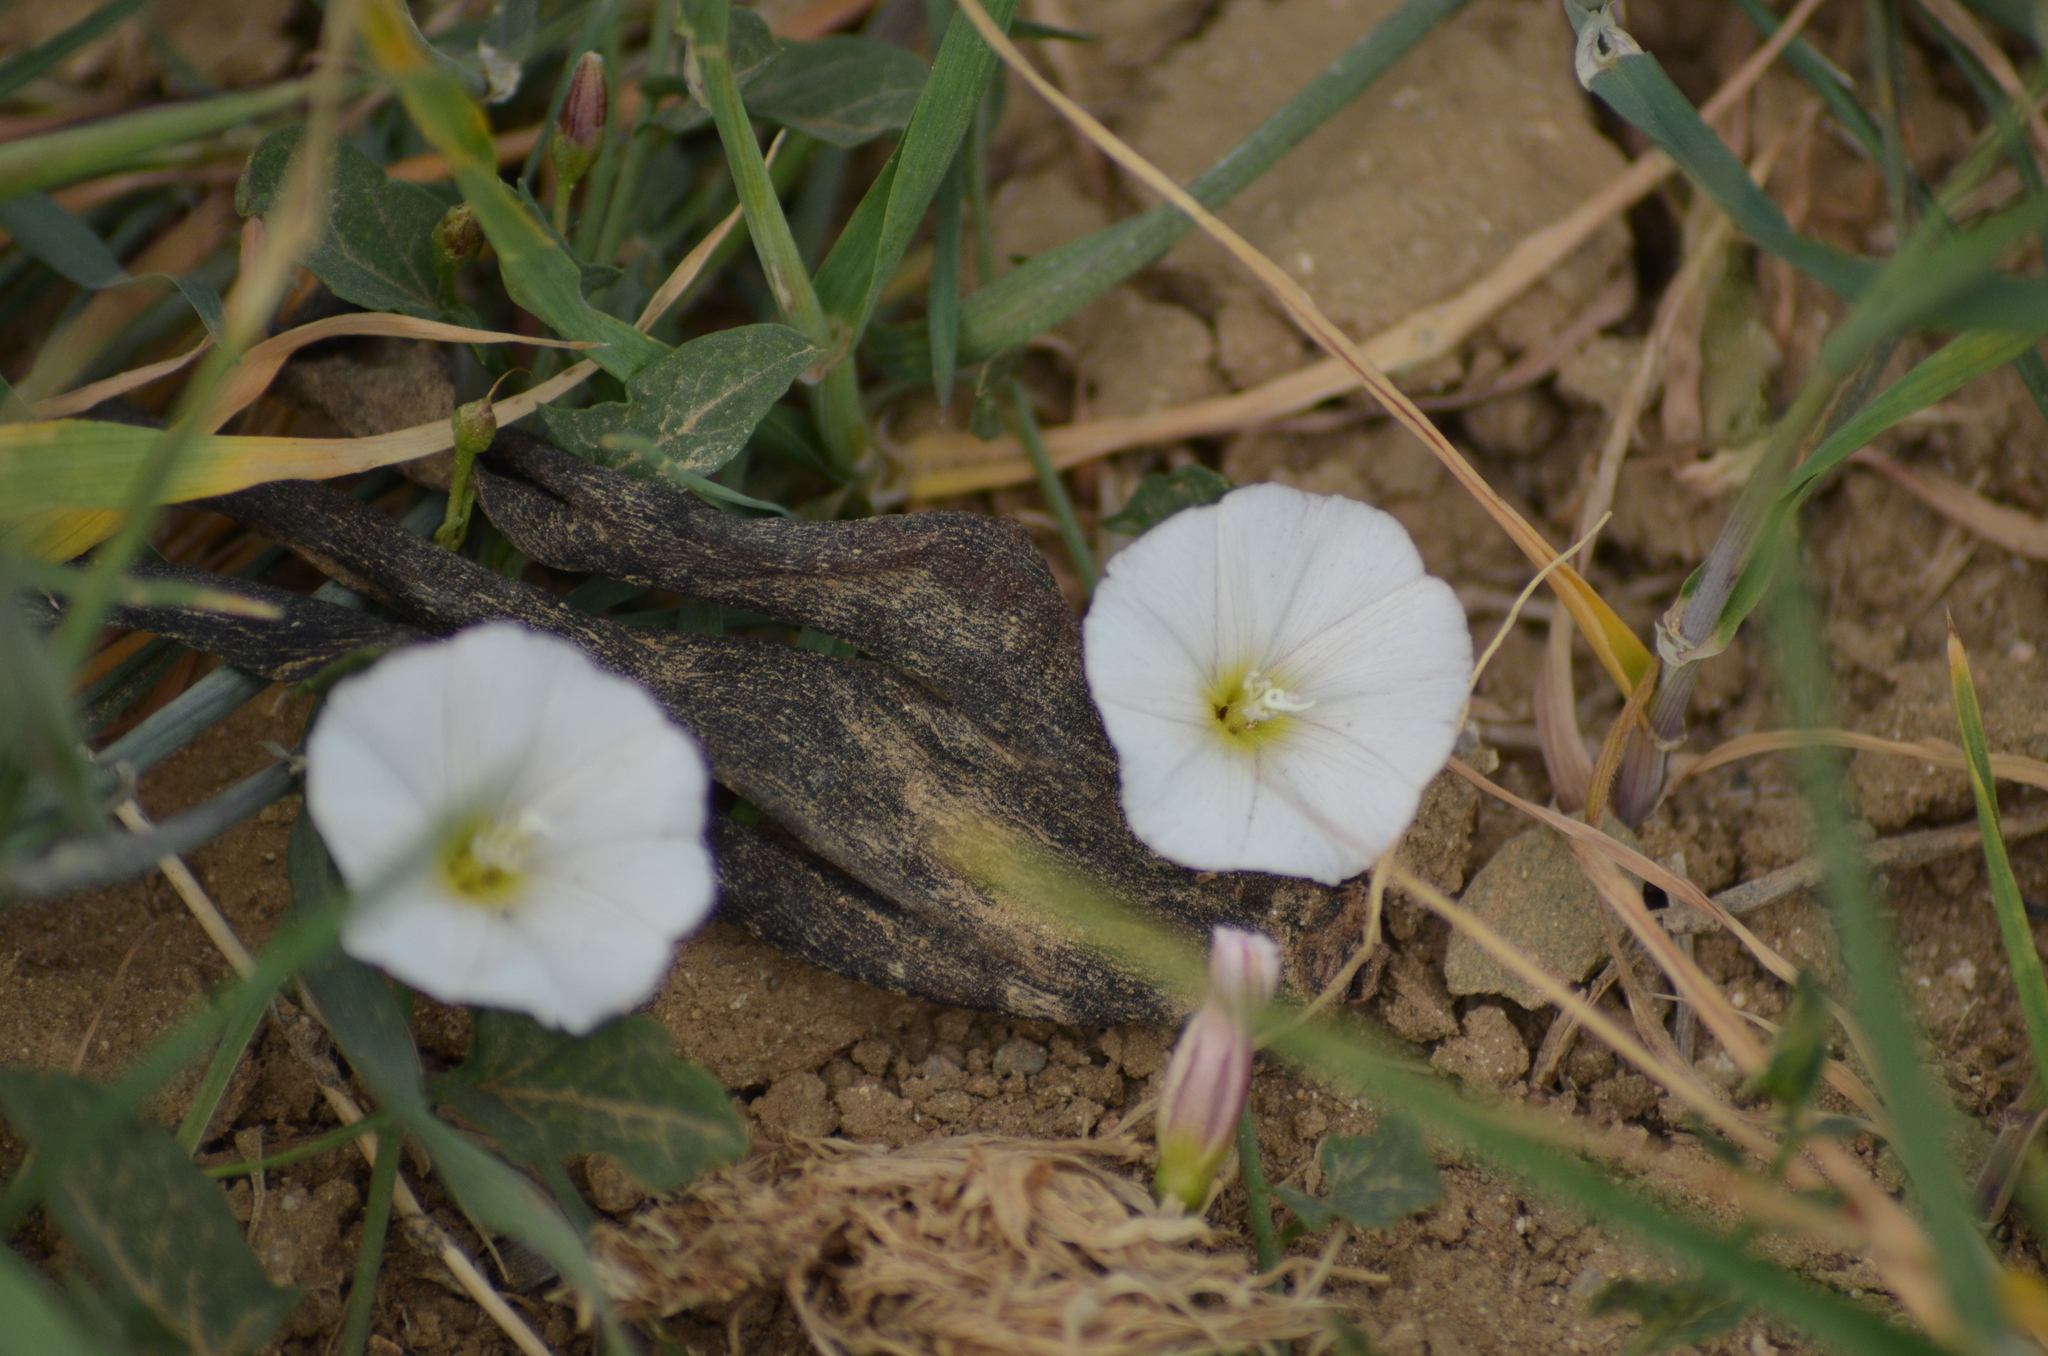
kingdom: Plantae
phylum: Tracheophyta
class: Magnoliopsida
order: Solanales
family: Convolvulaceae
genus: Convolvulus
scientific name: Convolvulus arvensis
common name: Field bindweed
